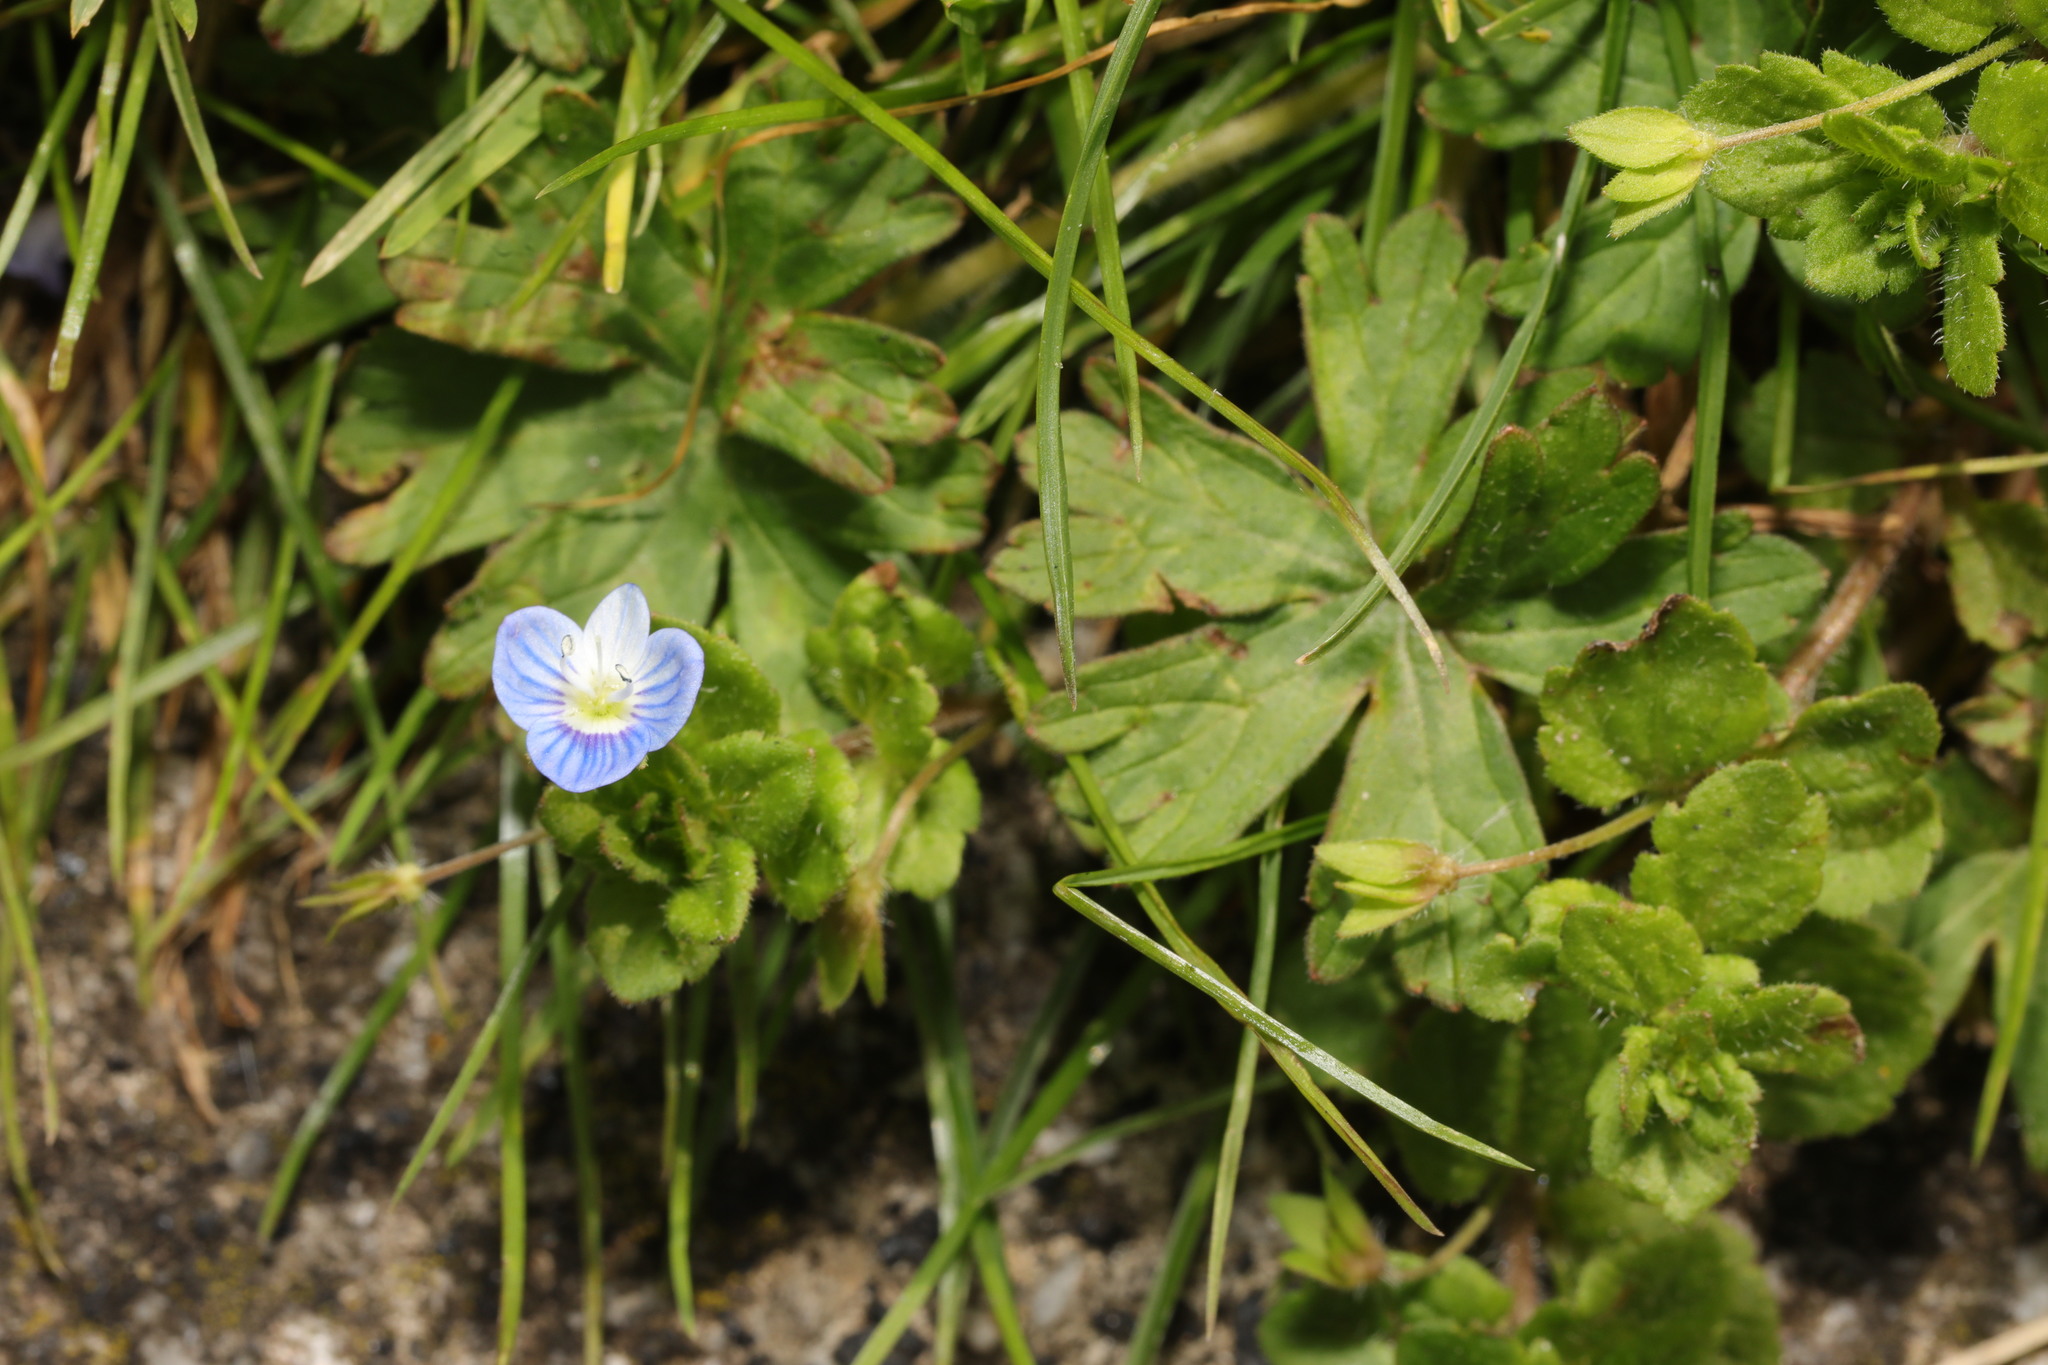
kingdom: Plantae
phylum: Tracheophyta
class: Magnoliopsida
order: Lamiales
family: Plantaginaceae
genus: Veronica
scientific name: Veronica persica
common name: Common field-speedwell
